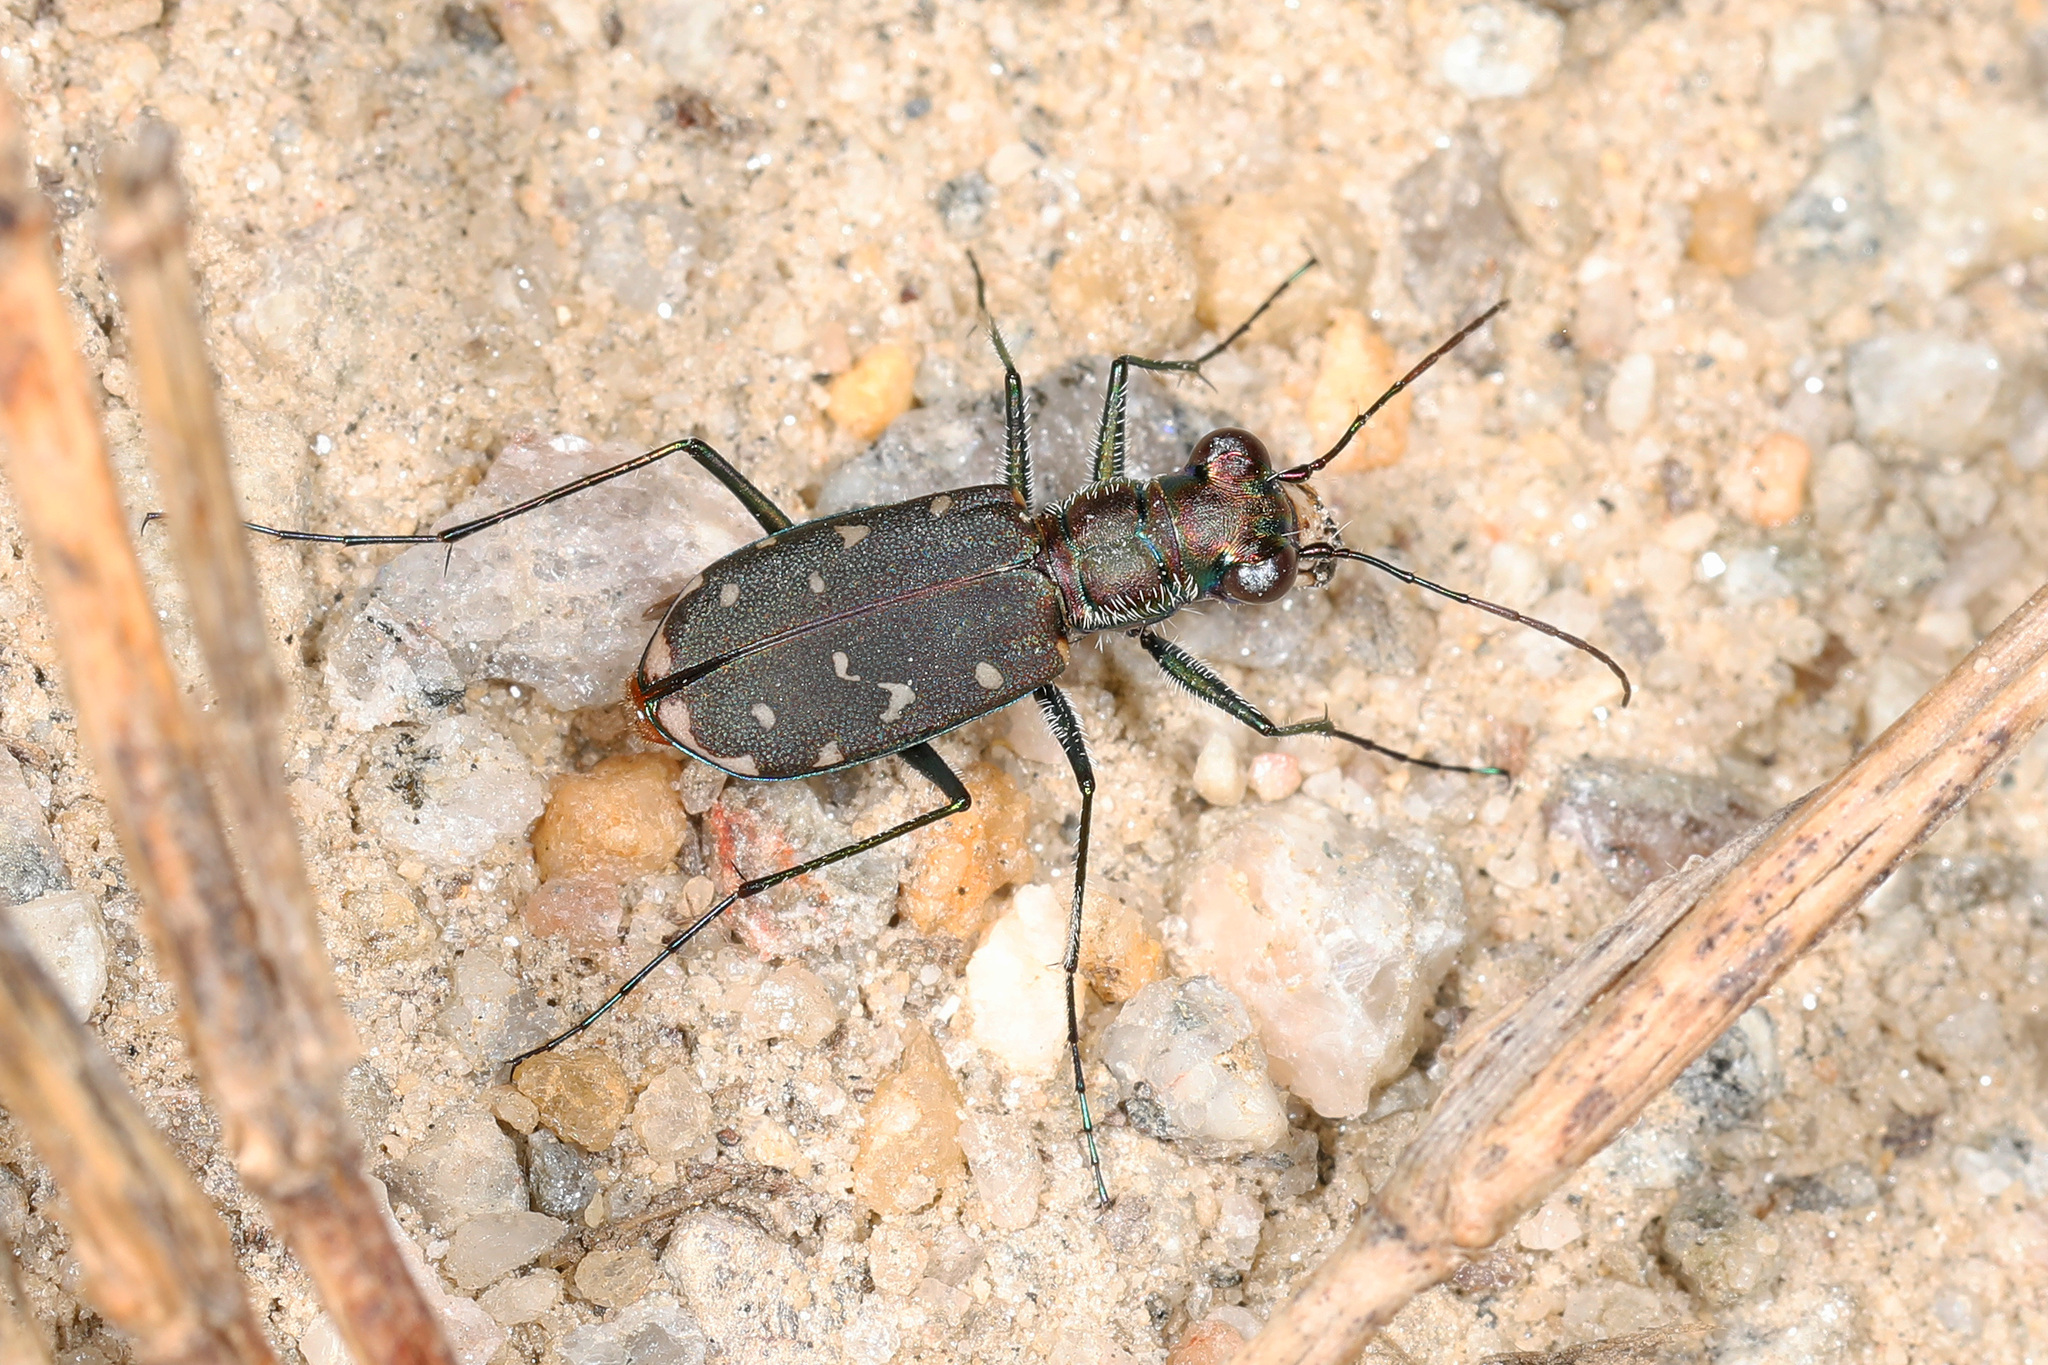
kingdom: Animalia
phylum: Arthropoda
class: Insecta
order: Coleoptera
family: Carabidae
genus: Cicindela
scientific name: Cicindela rufiventris
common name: Eastern red-bellied tiger beetle
